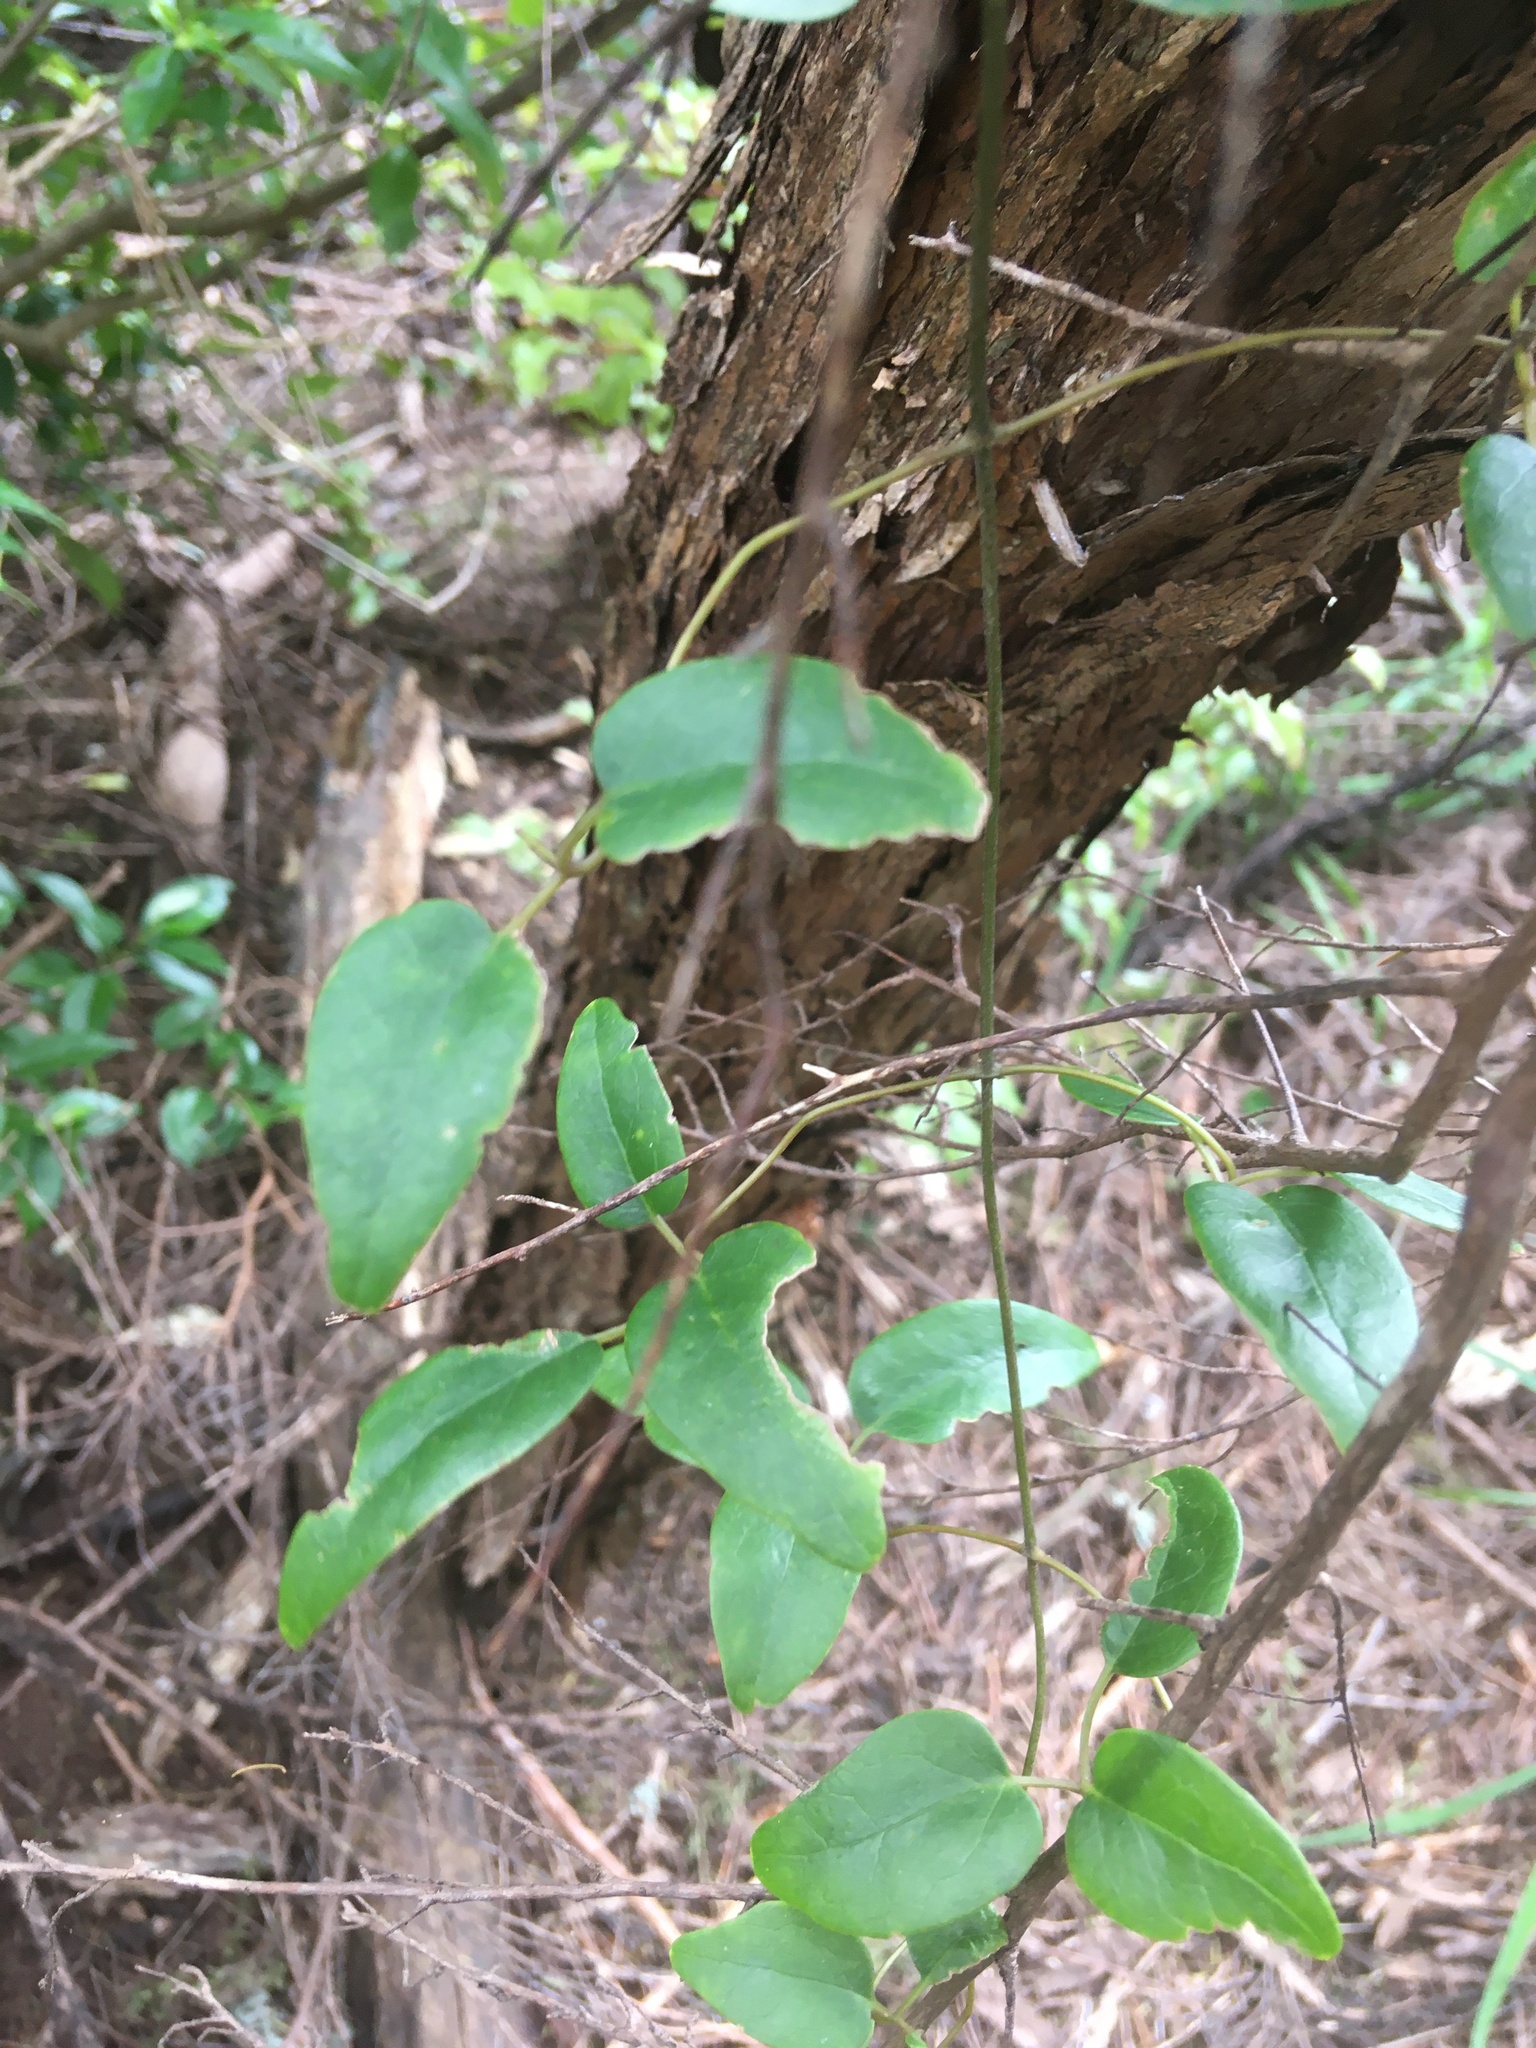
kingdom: Plantae
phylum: Tracheophyta
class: Magnoliopsida
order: Ranunculales
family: Ranunculaceae
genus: Clematis
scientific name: Clematis forsteri
